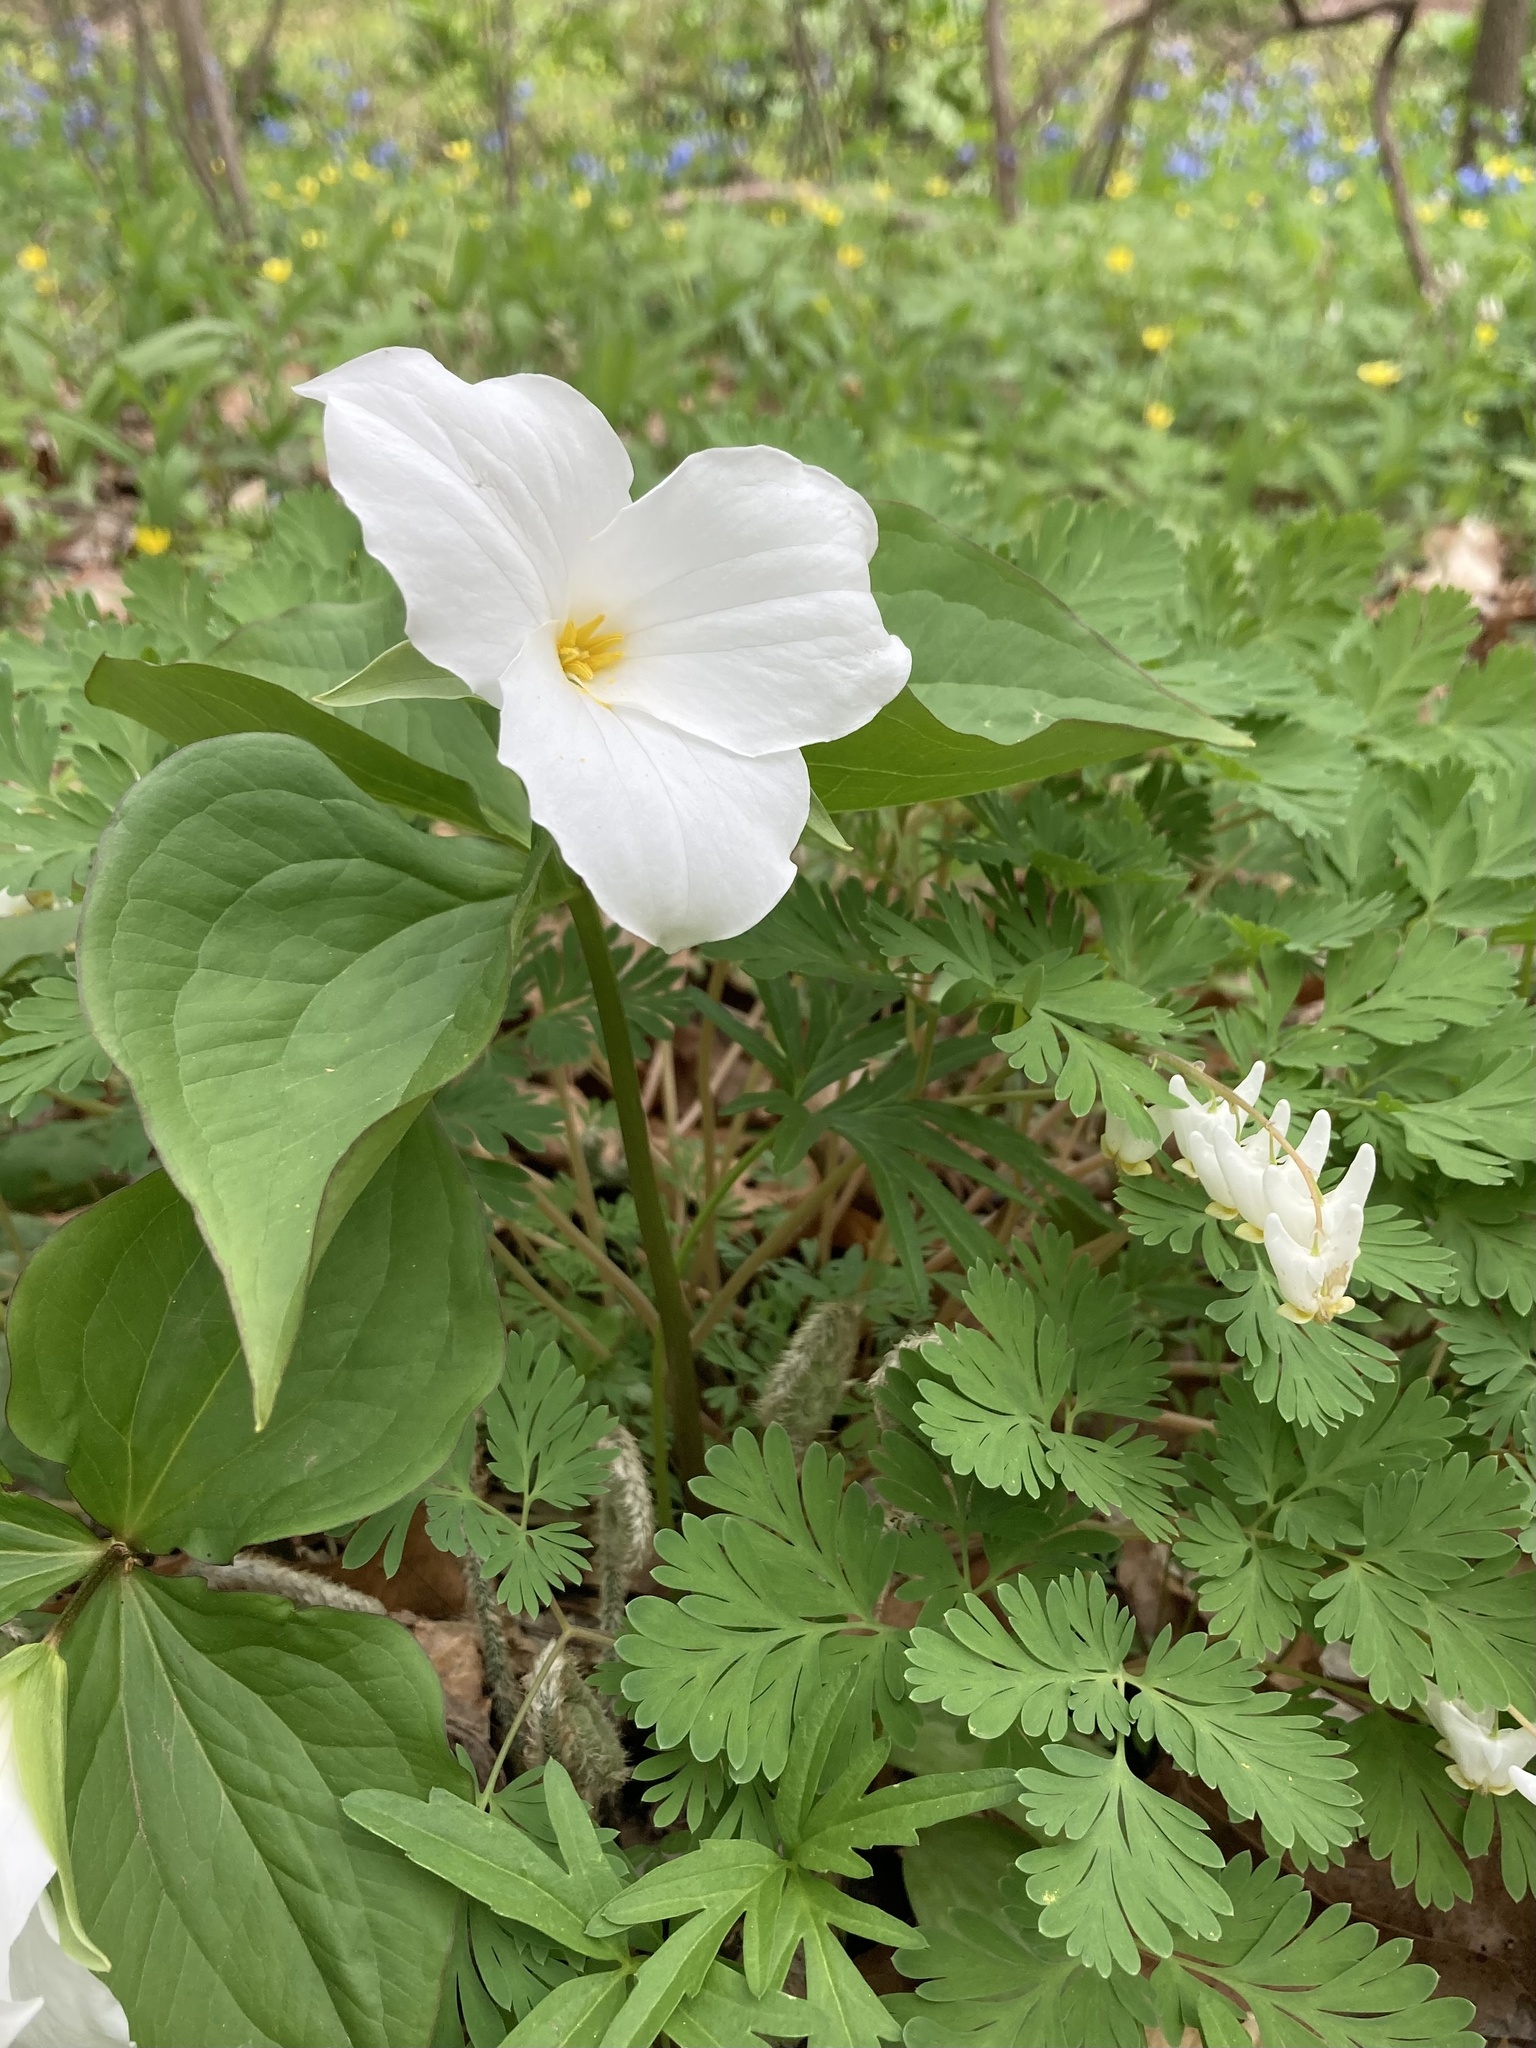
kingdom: Plantae
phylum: Tracheophyta
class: Liliopsida
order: Liliales
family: Melanthiaceae
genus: Trillium
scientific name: Trillium grandiflorum
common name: Great white trillium
